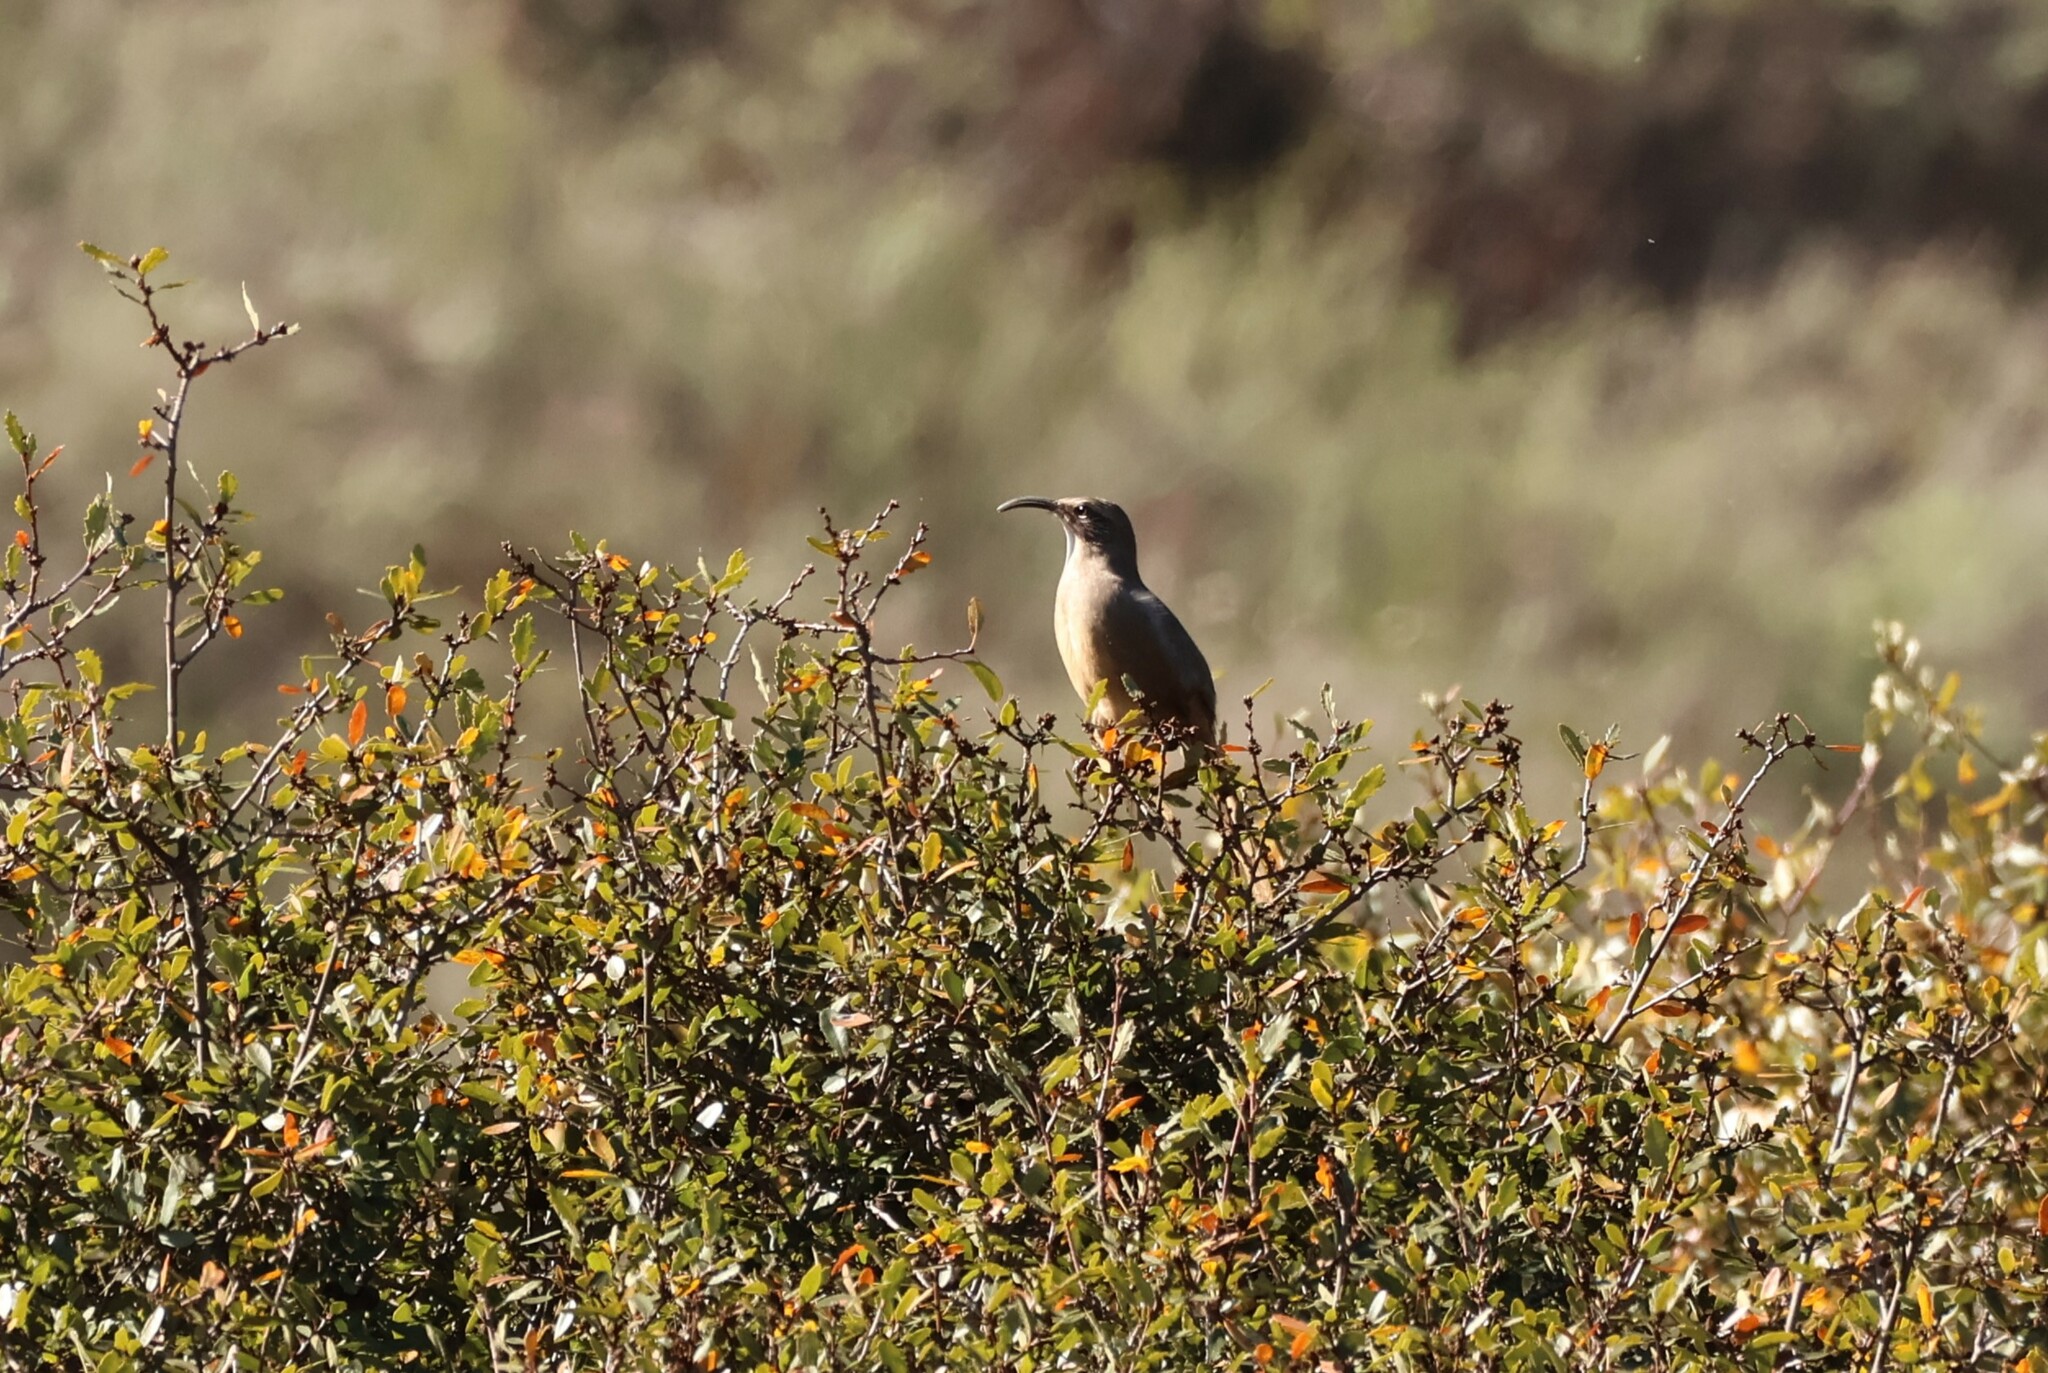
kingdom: Animalia
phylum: Chordata
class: Aves
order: Passeriformes
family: Mimidae
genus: Toxostoma
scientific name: Toxostoma redivivum
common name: California thrasher
